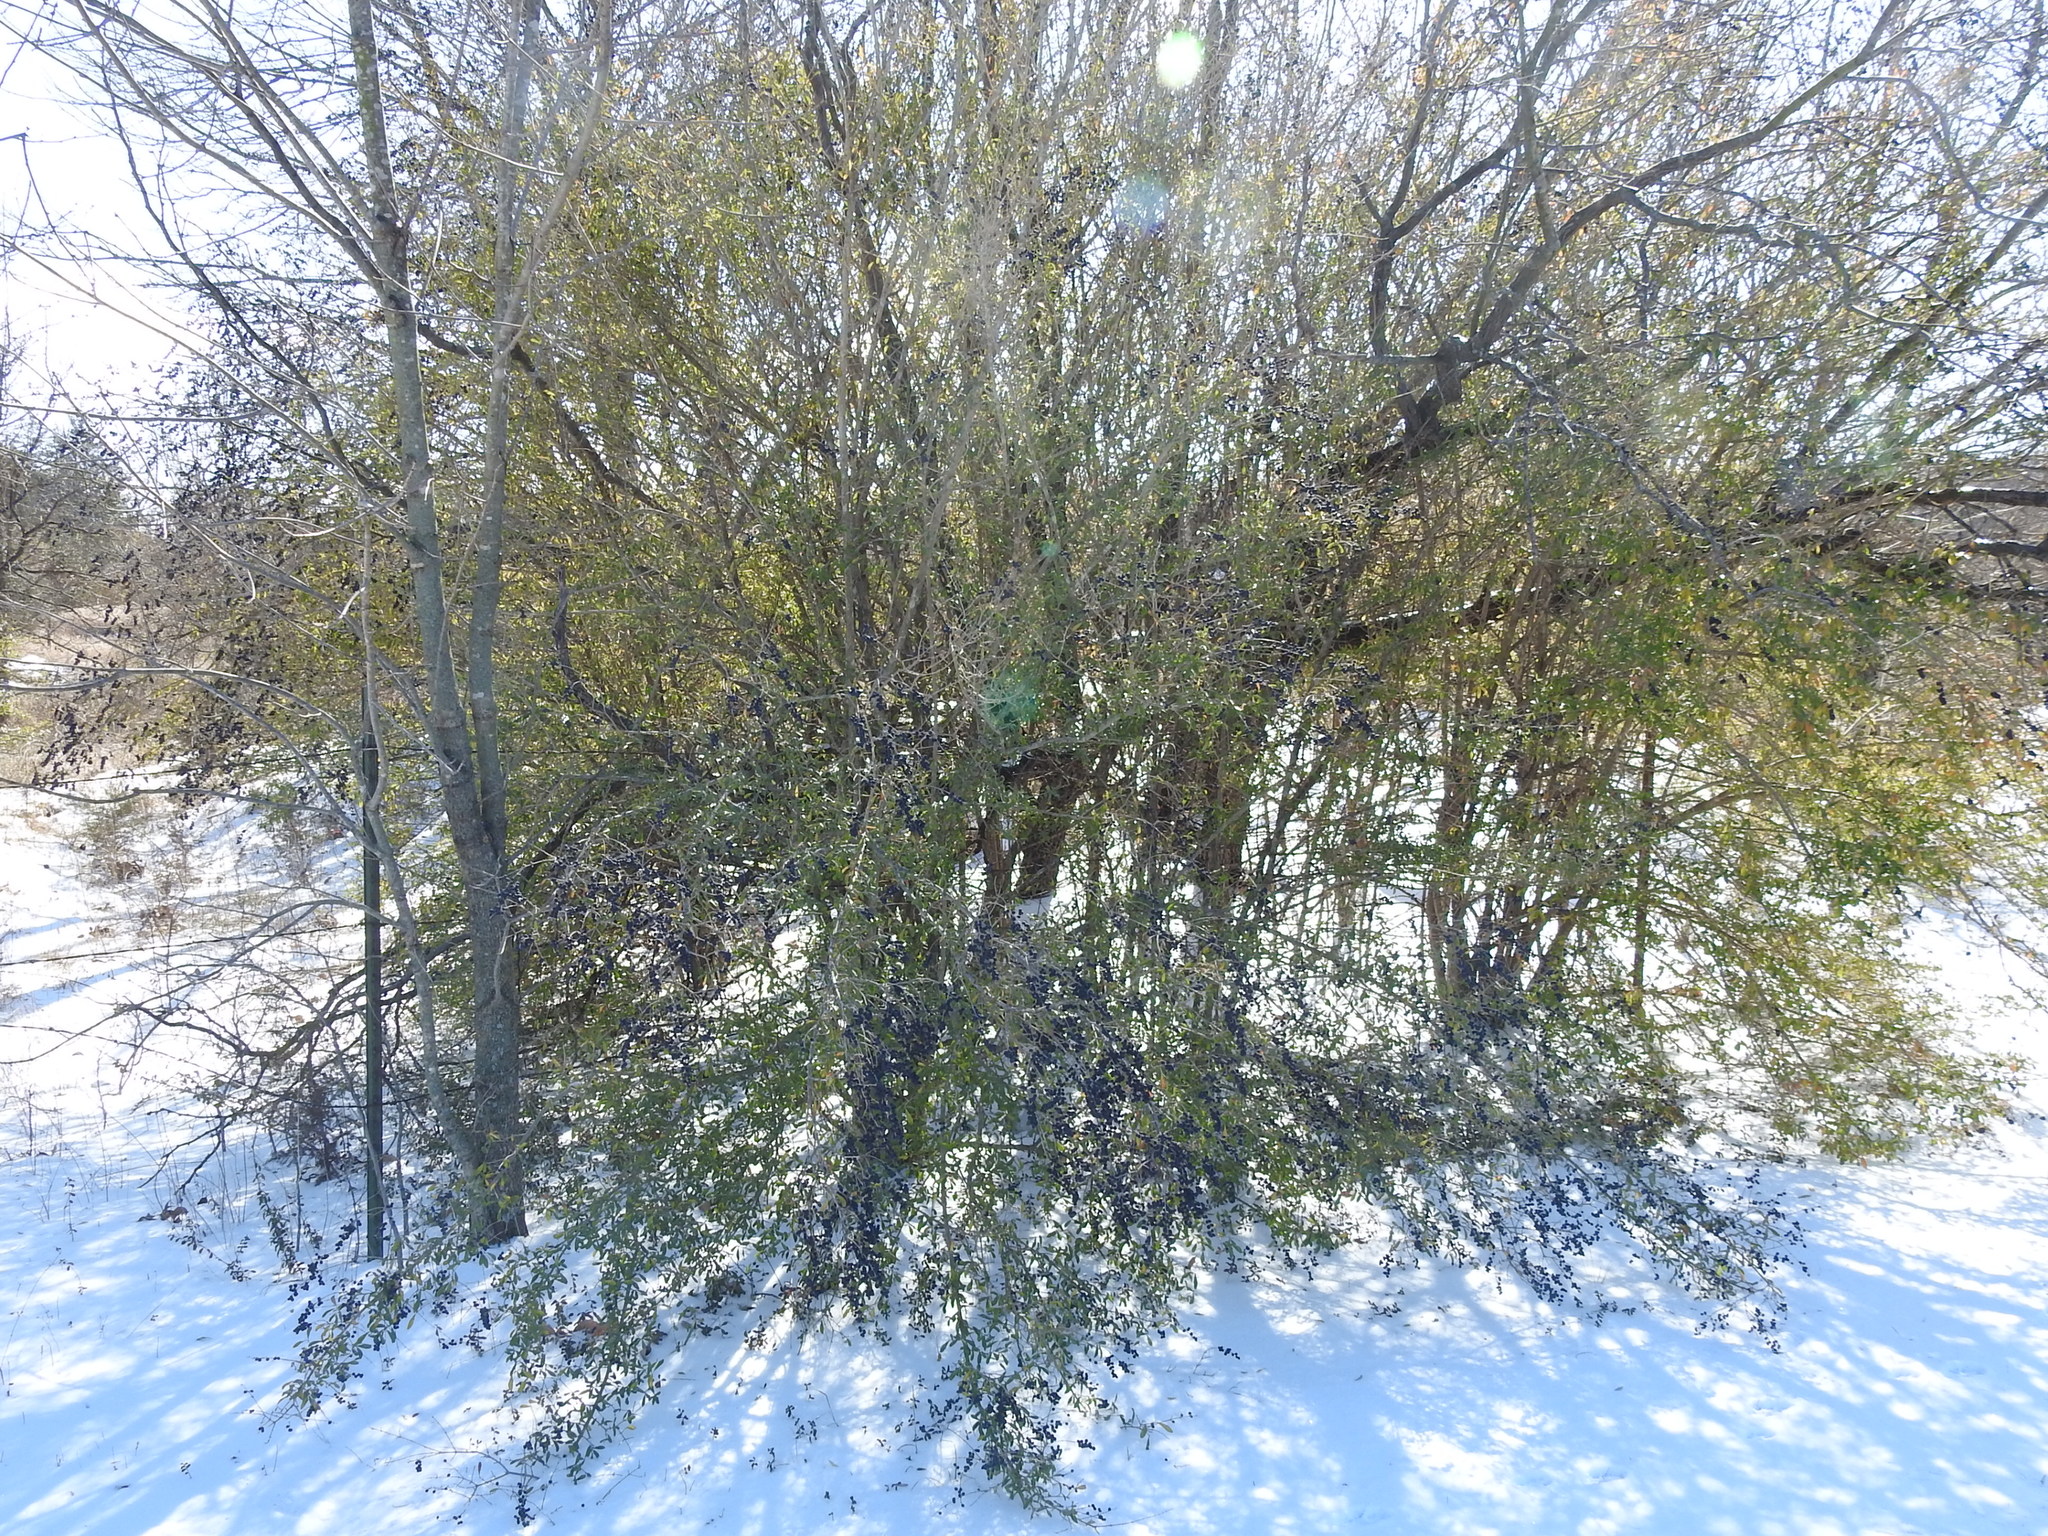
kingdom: Plantae
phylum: Tracheophyta
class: Magnoliopsida
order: Lamiales
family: Oleaceae
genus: Ligustrum
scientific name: Ligustrum quihoui
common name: Waxyleaf privet
